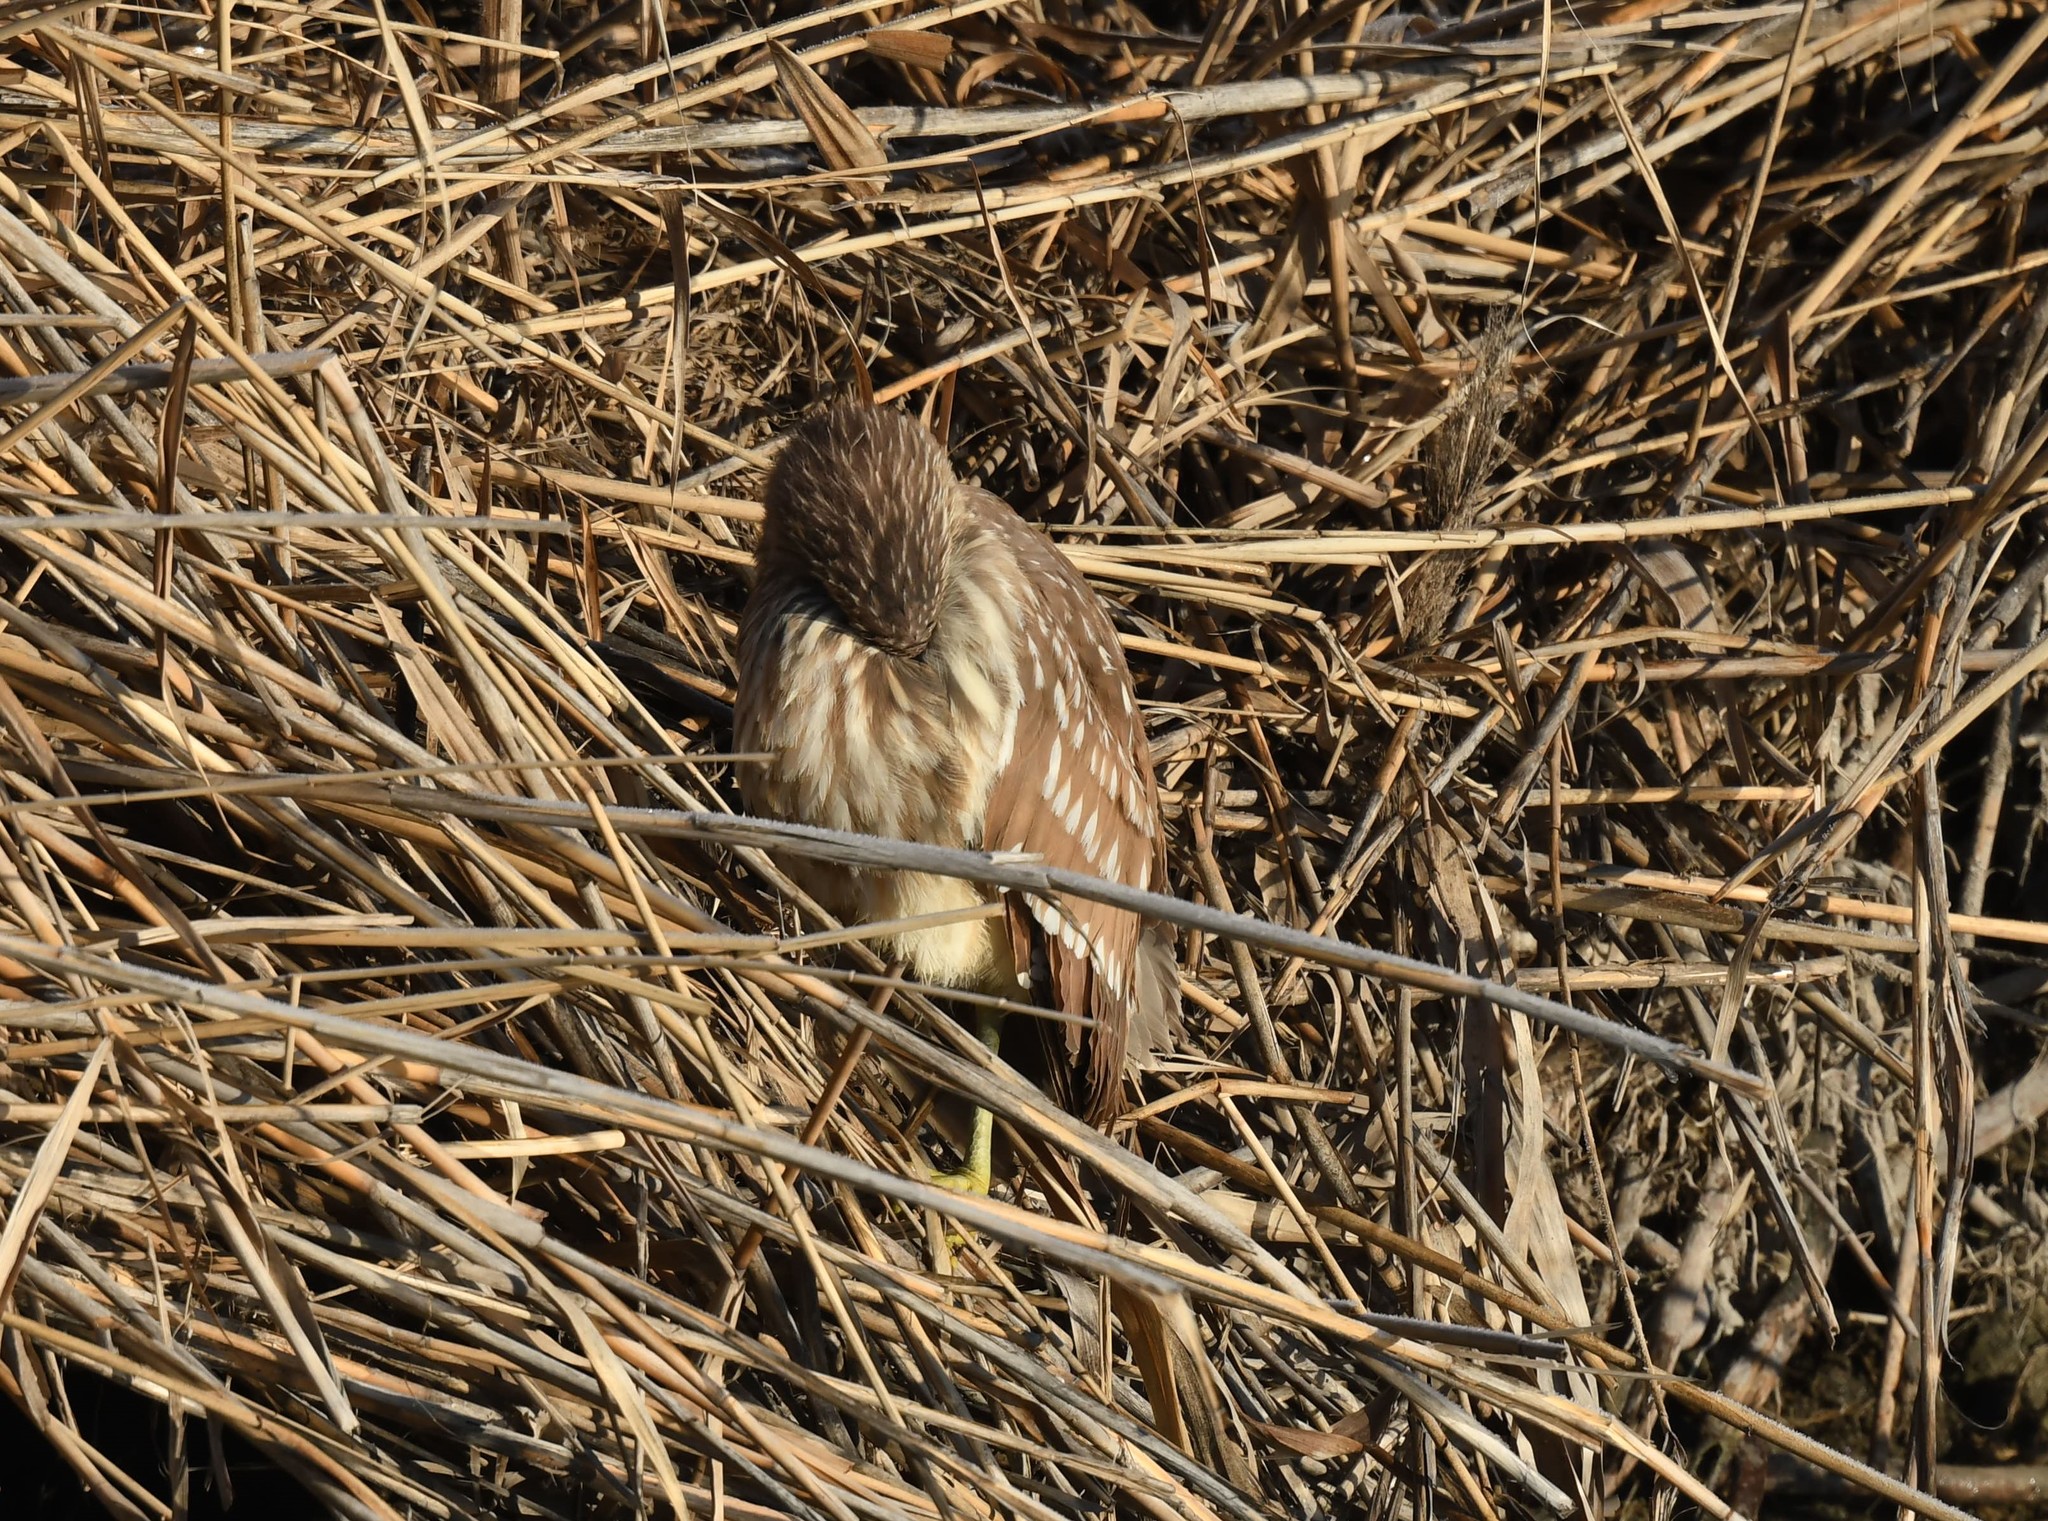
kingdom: Animalia
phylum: Chordata
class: Aves
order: Pelecaniformes
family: Ardeidae
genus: Nycticorax
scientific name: Nycticorax nycticorax
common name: Black-crowned night heron
